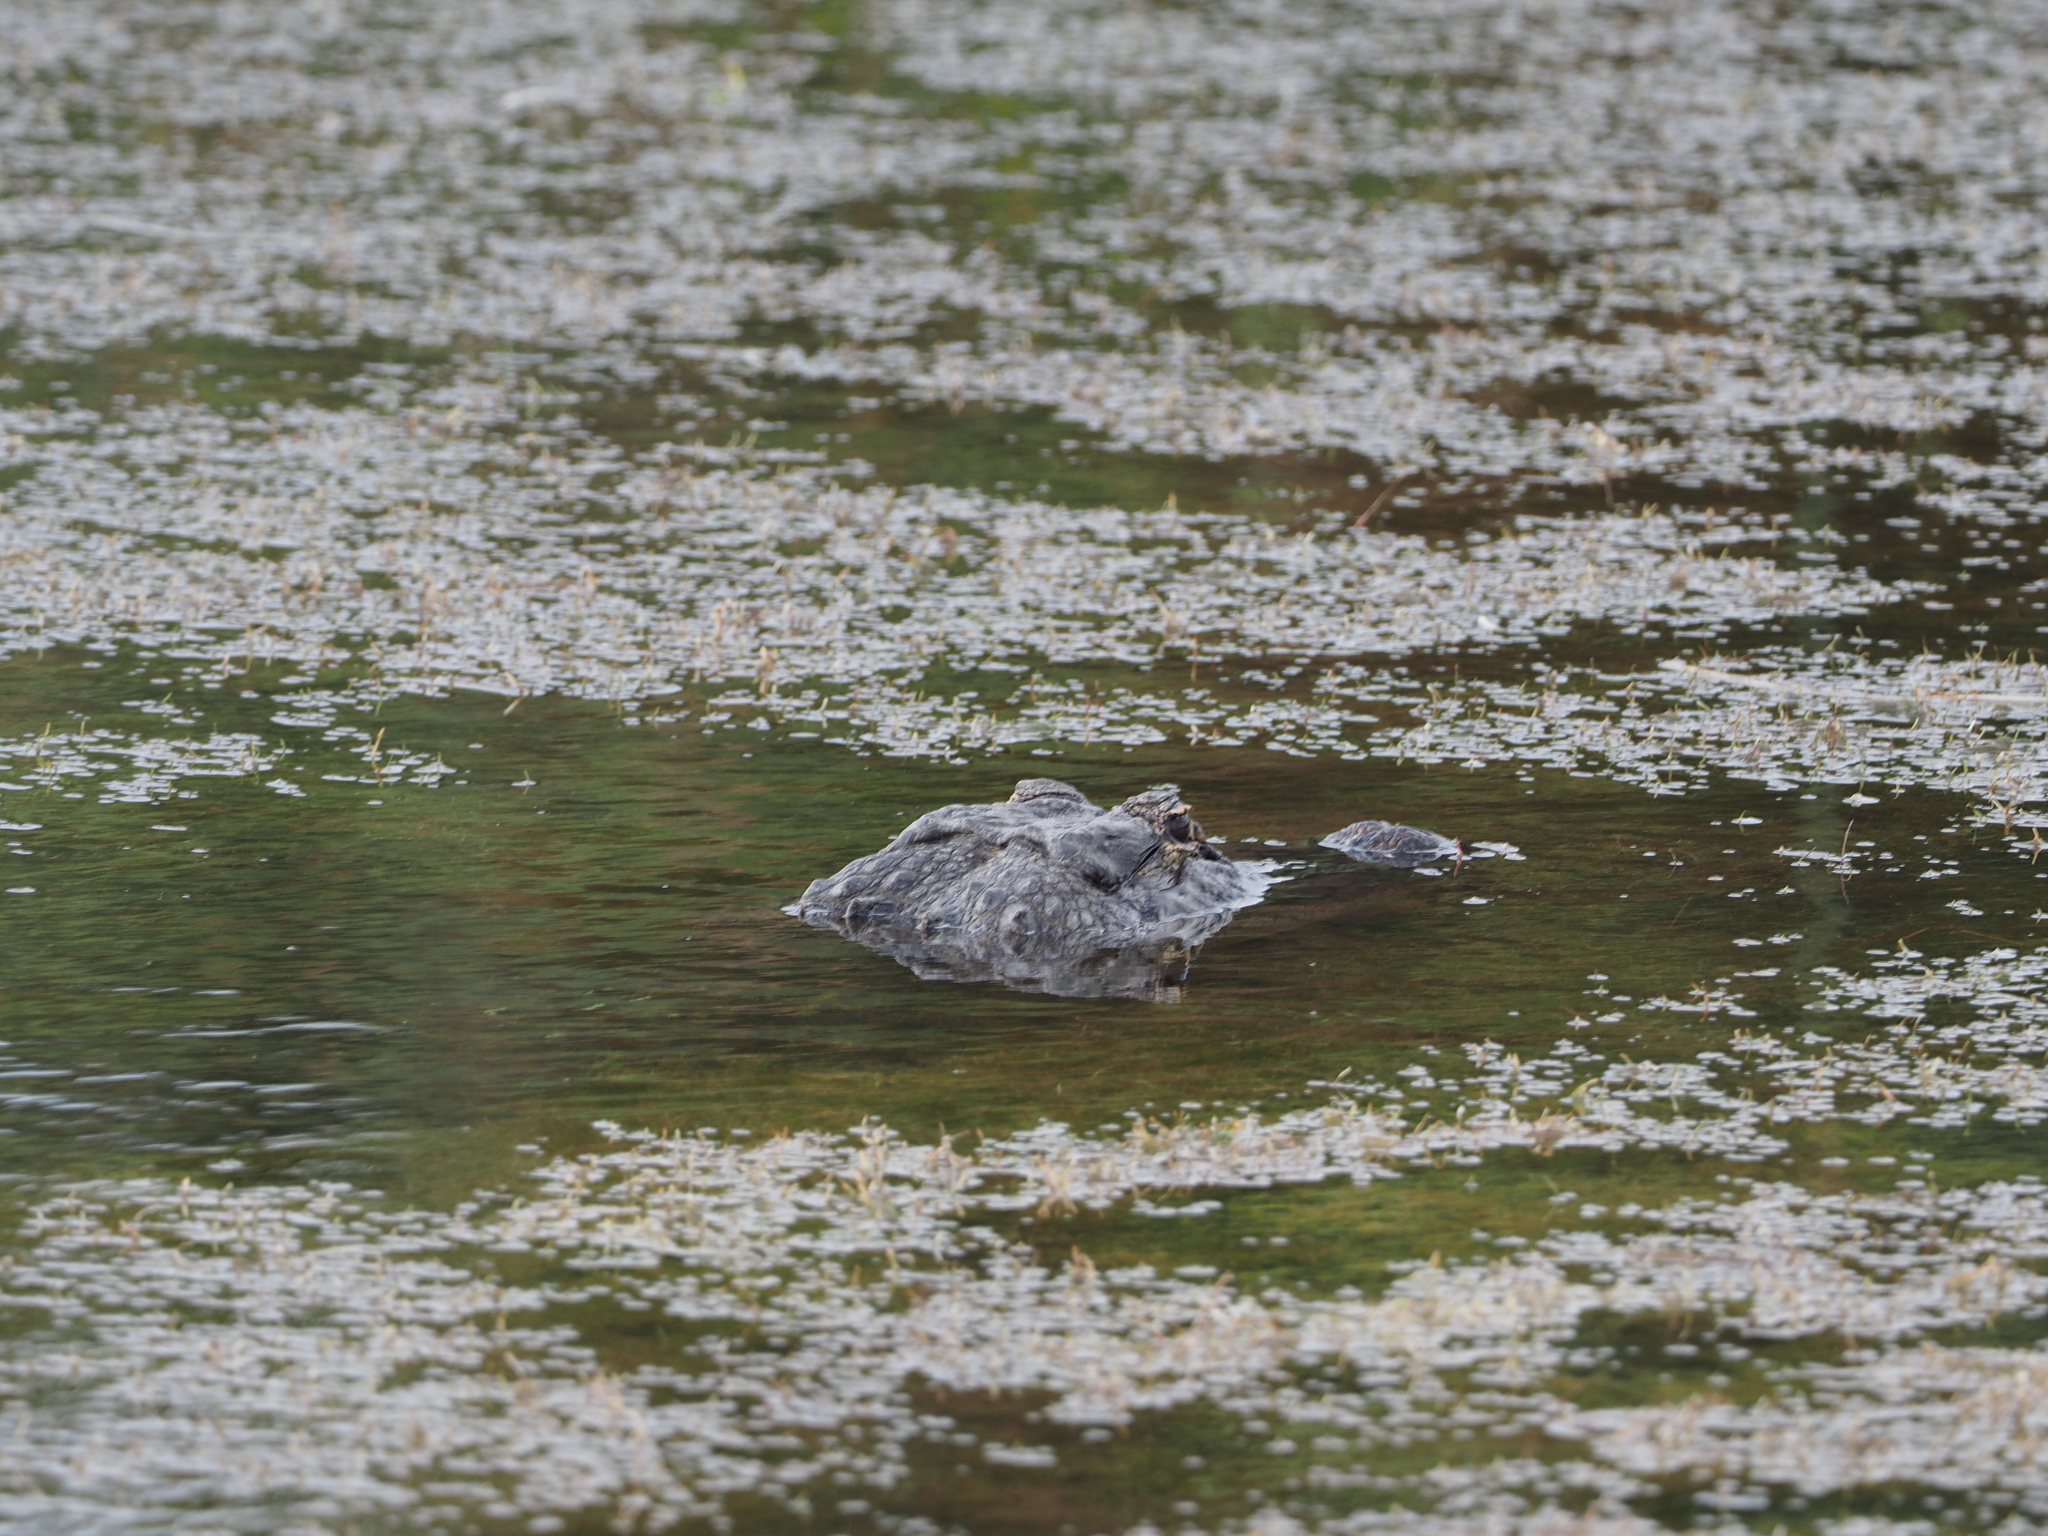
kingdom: Animalia
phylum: Chordata
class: Crocodylia
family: Alligatoridae
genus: Alligator
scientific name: Alligator mississippiensis
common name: American alligator
